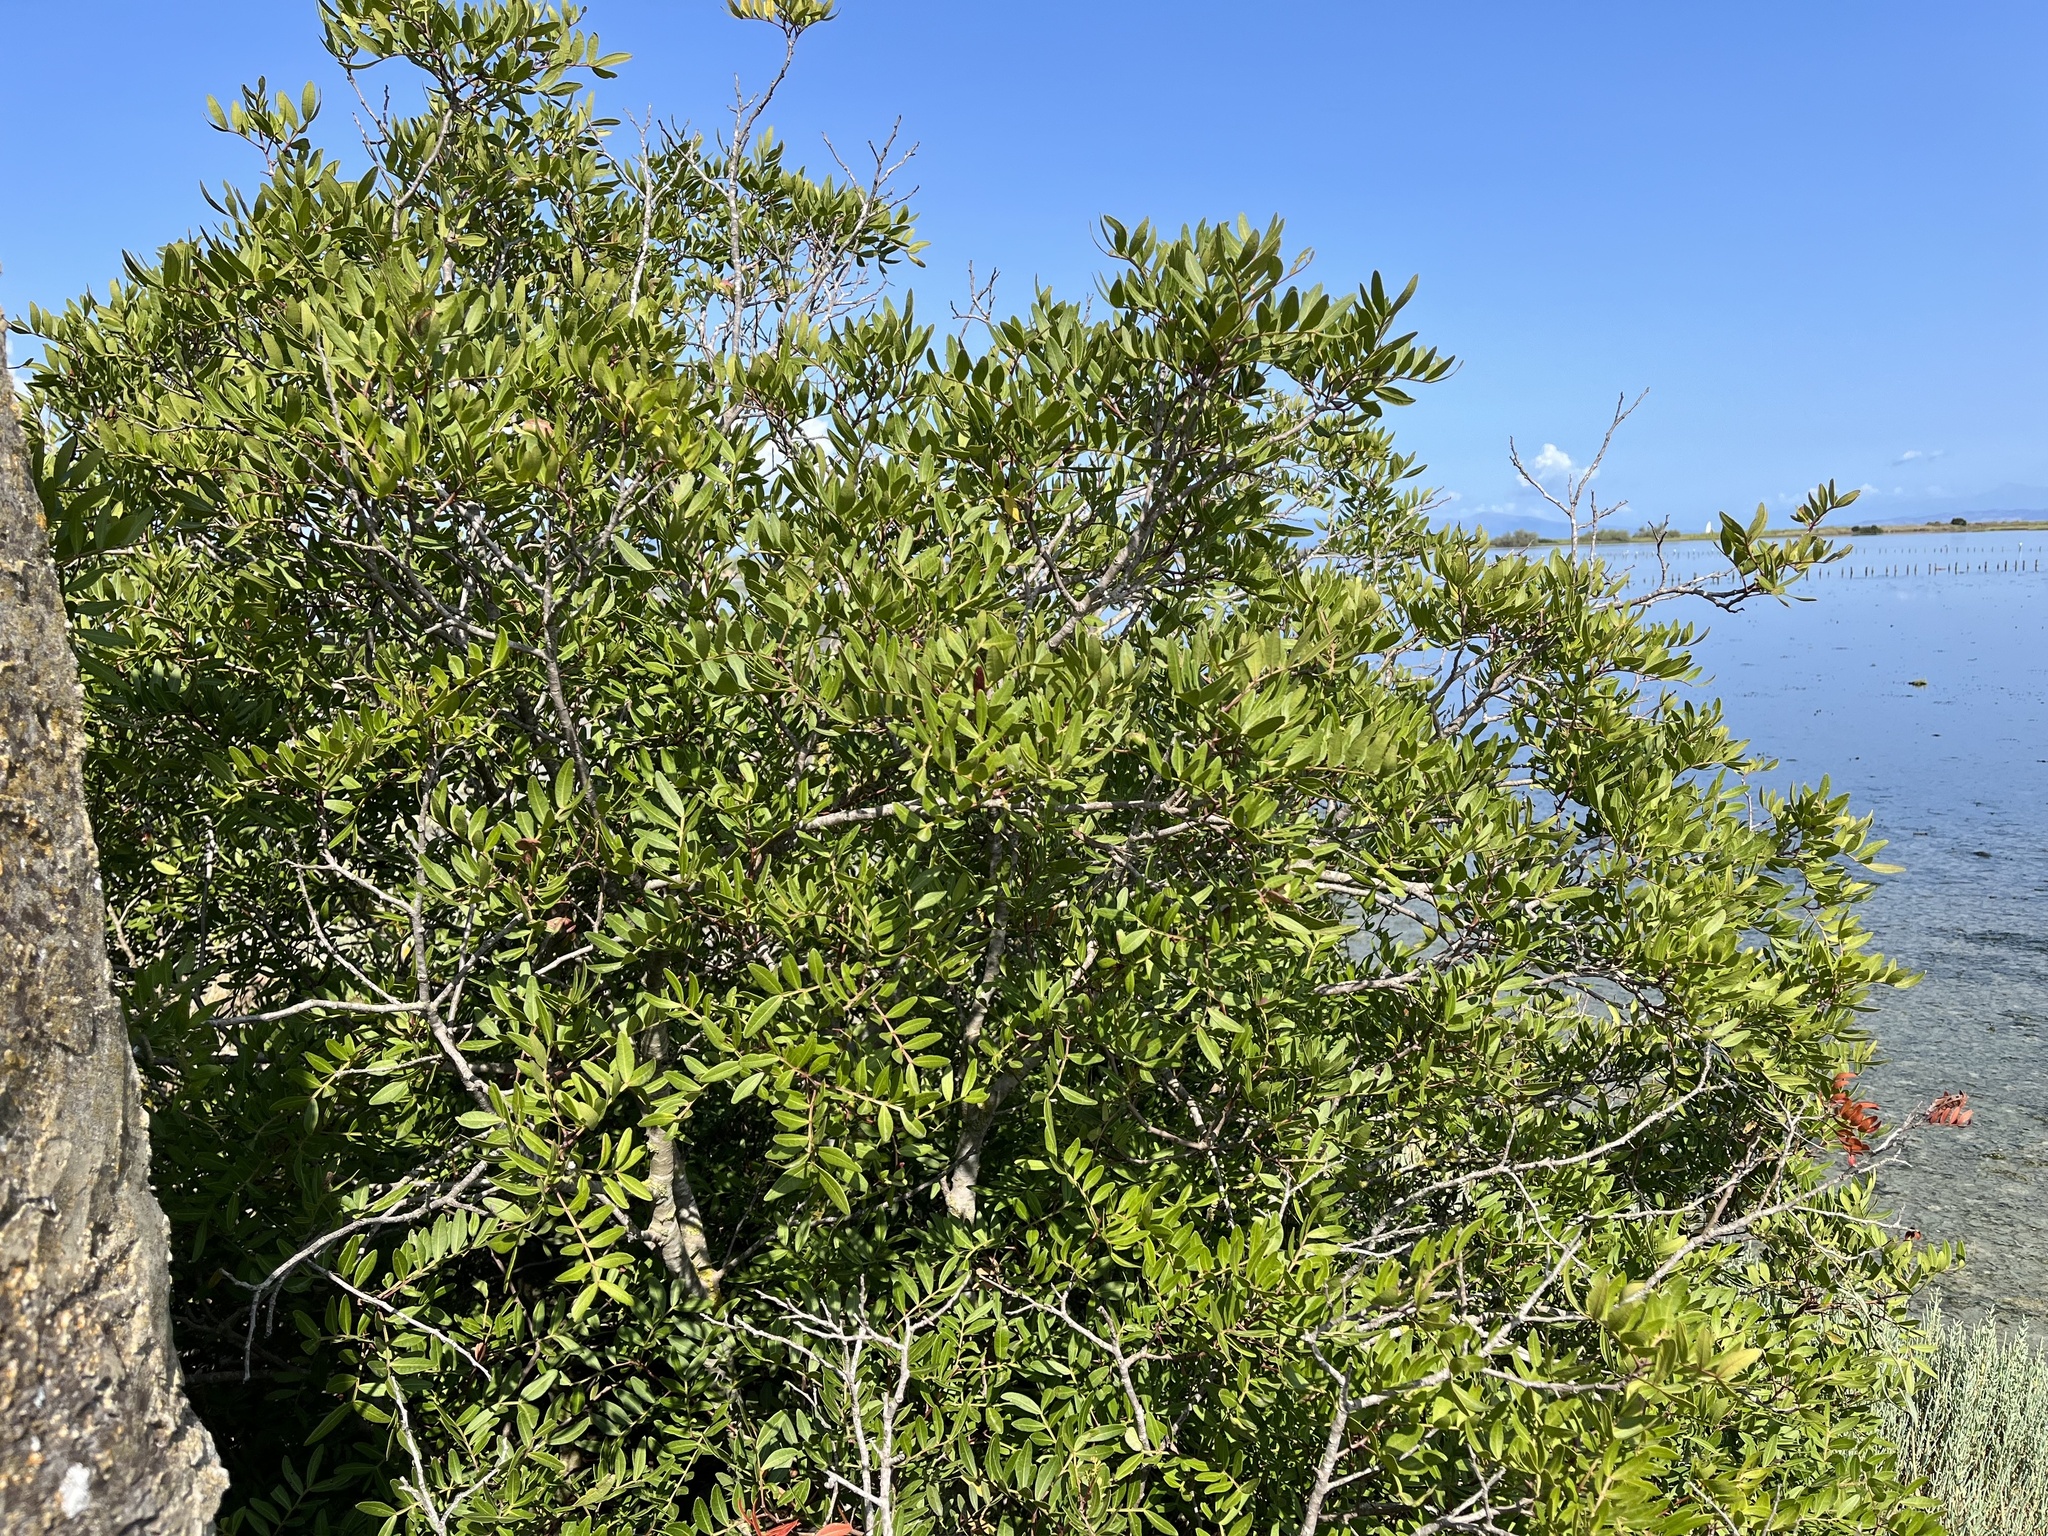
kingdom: Plantae
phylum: Tracheophyta
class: Magnoliopsida
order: Sapindales
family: Anacardiaceae
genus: Pistacia
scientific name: Pistacia lentiscus
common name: Lentisk
